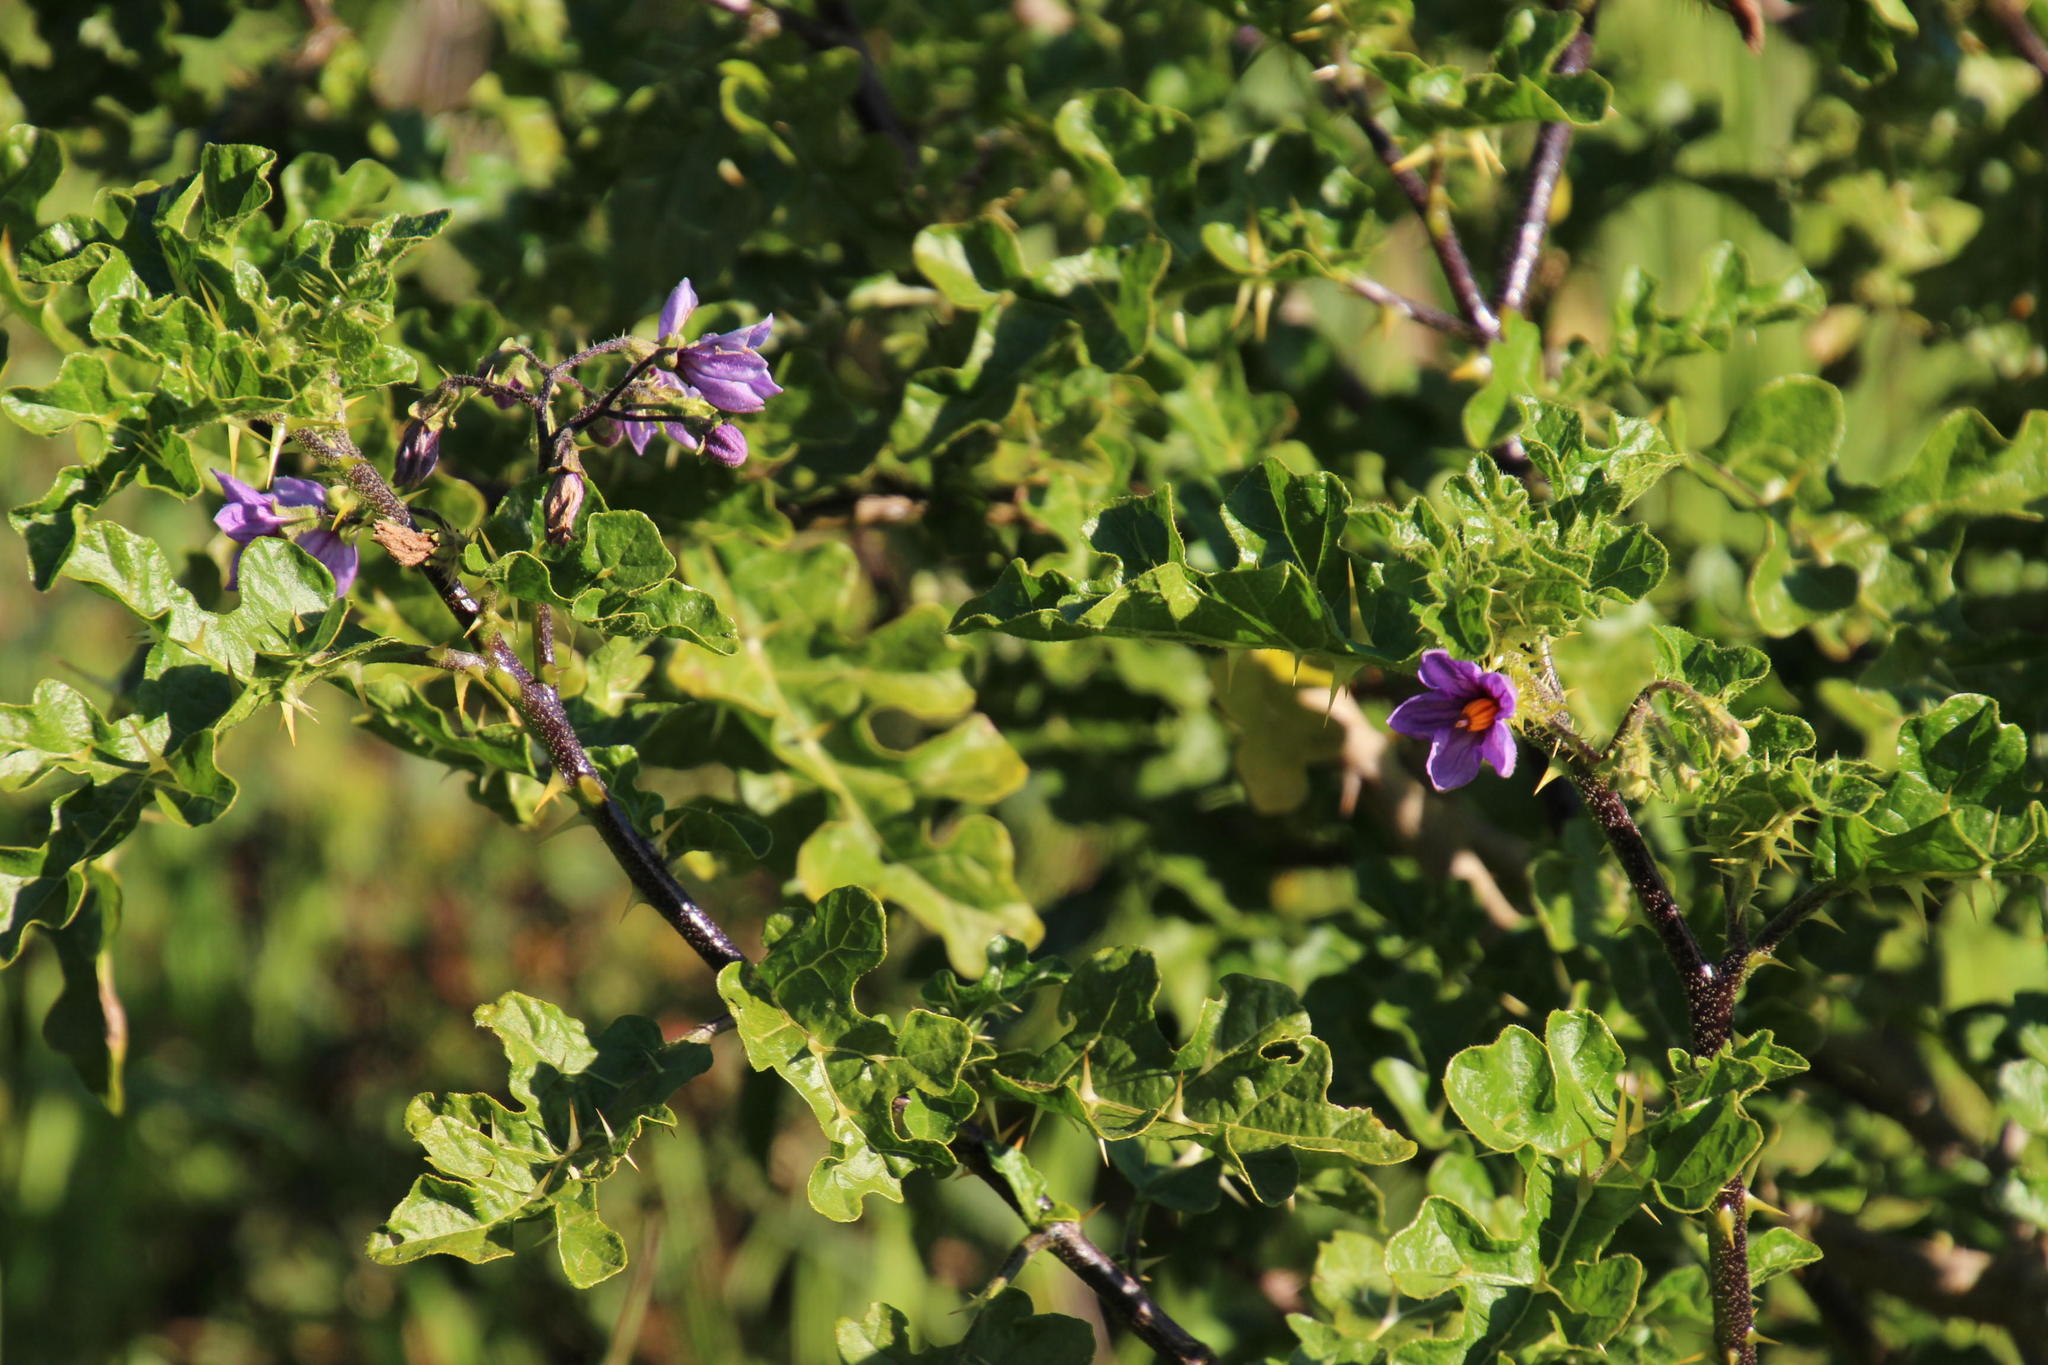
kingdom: Plantae
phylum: Tracheophyta
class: Magnoliopsida
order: Solanales
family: Solanaceae
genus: Solanum
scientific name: Solanum linnaeanum
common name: Nightshade
